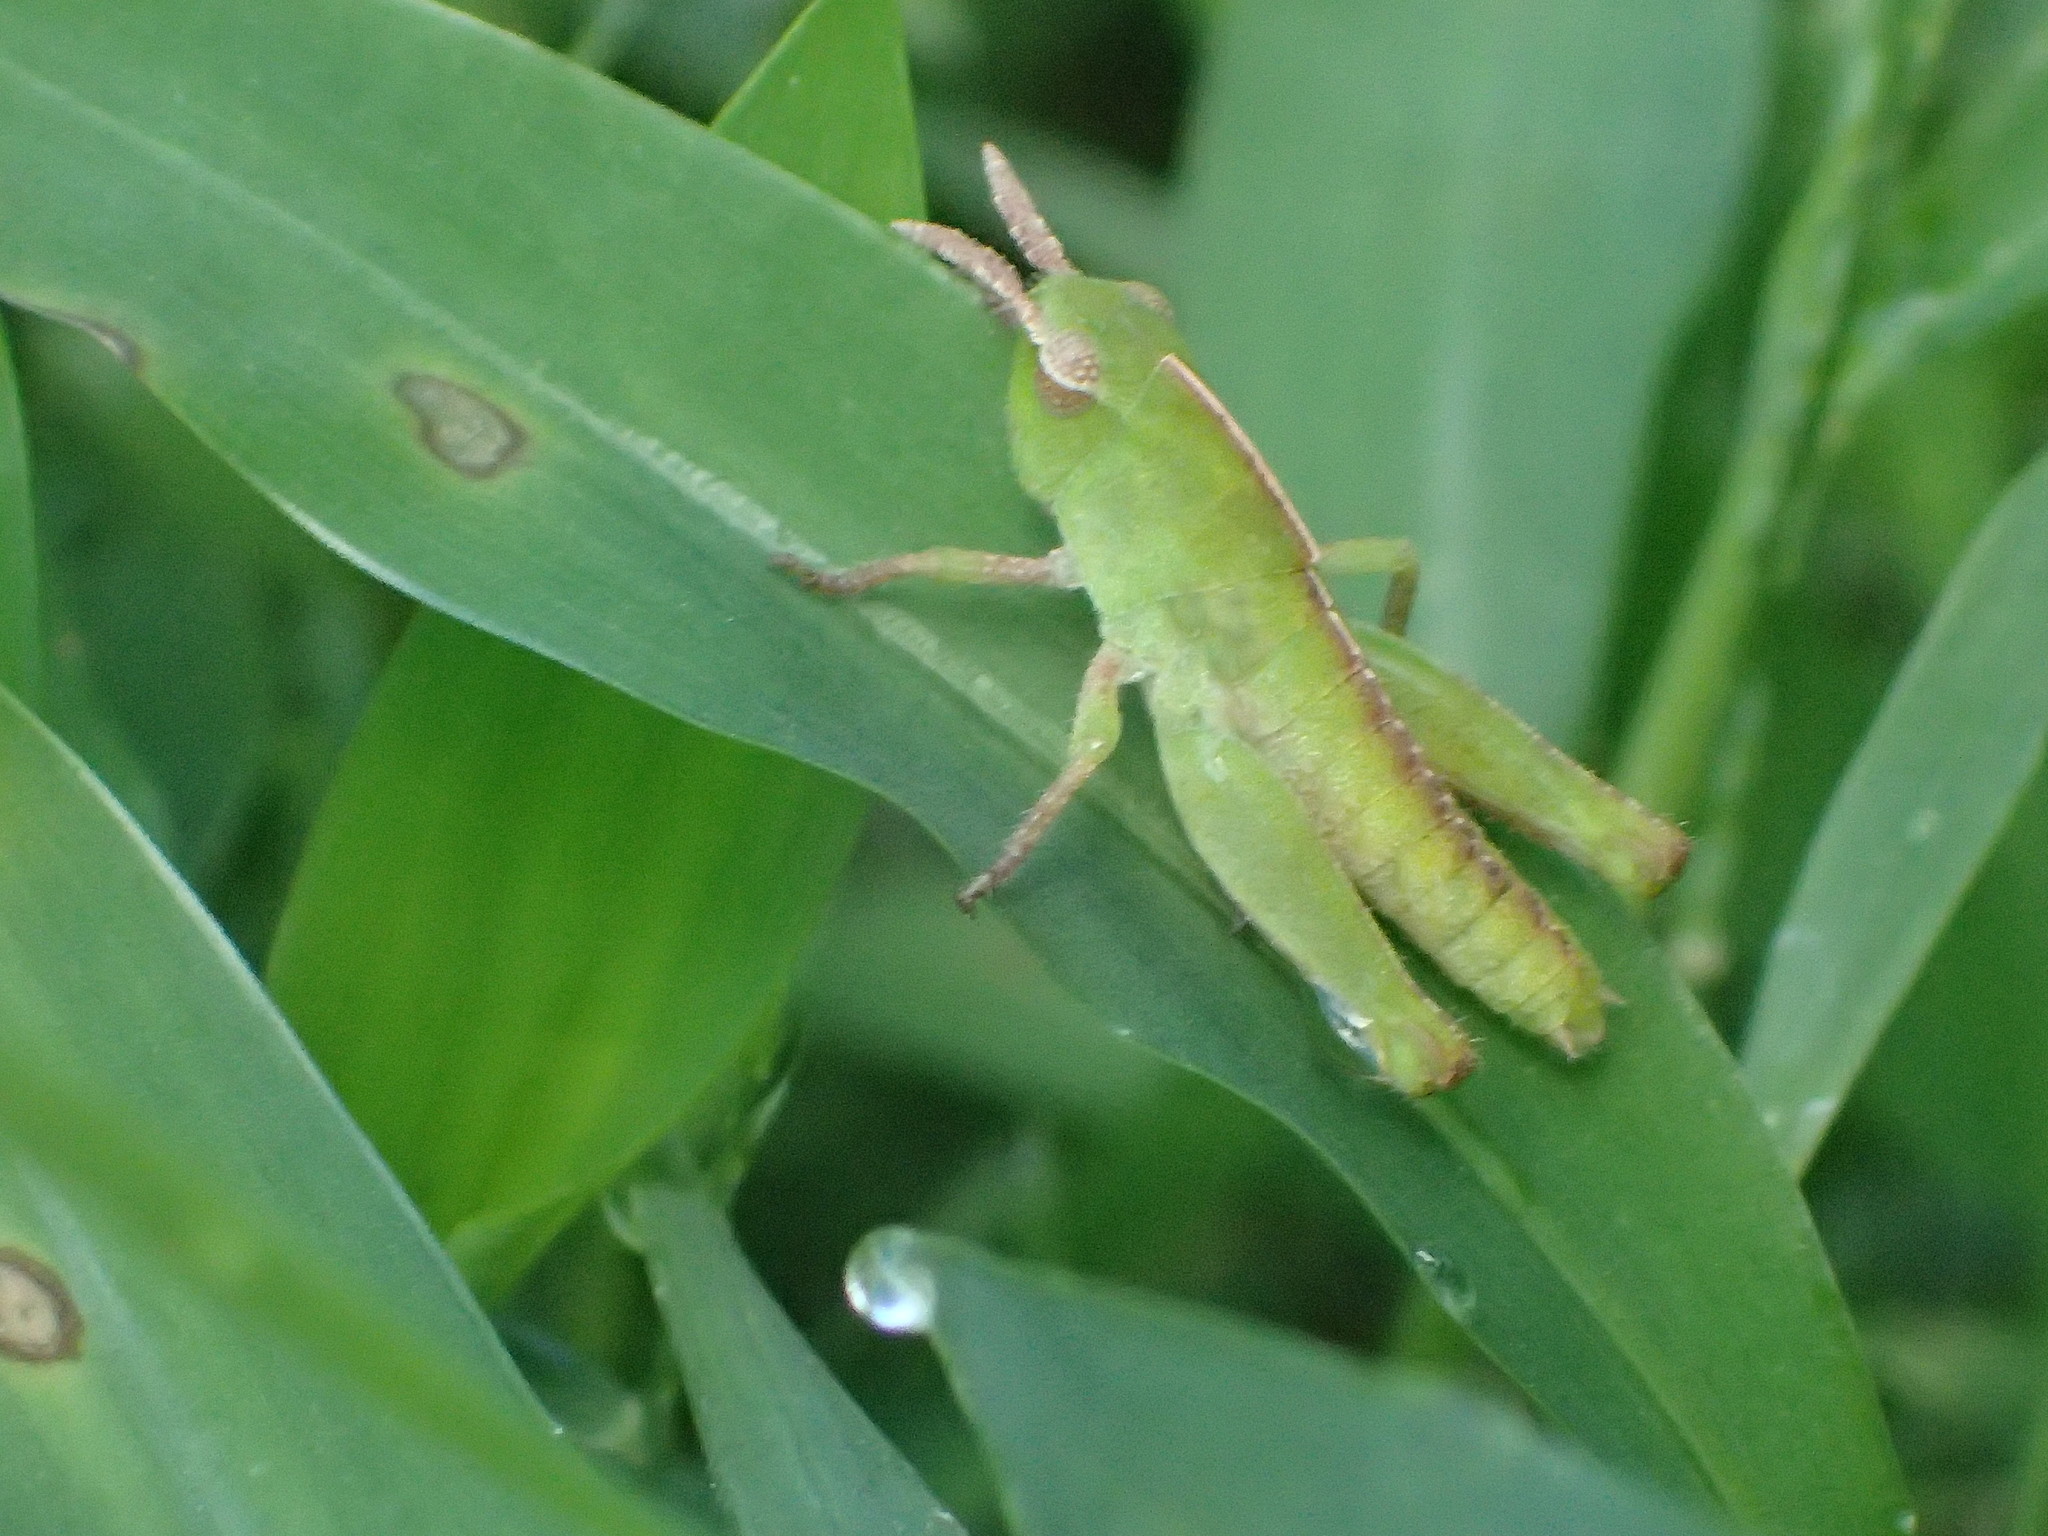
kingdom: Animalia
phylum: Arthropoda
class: Insecta
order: Orthoptera
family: Acrididae
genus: Chortophaga
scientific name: Chortophaga viridifasciata
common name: Green-striped grasshopper
